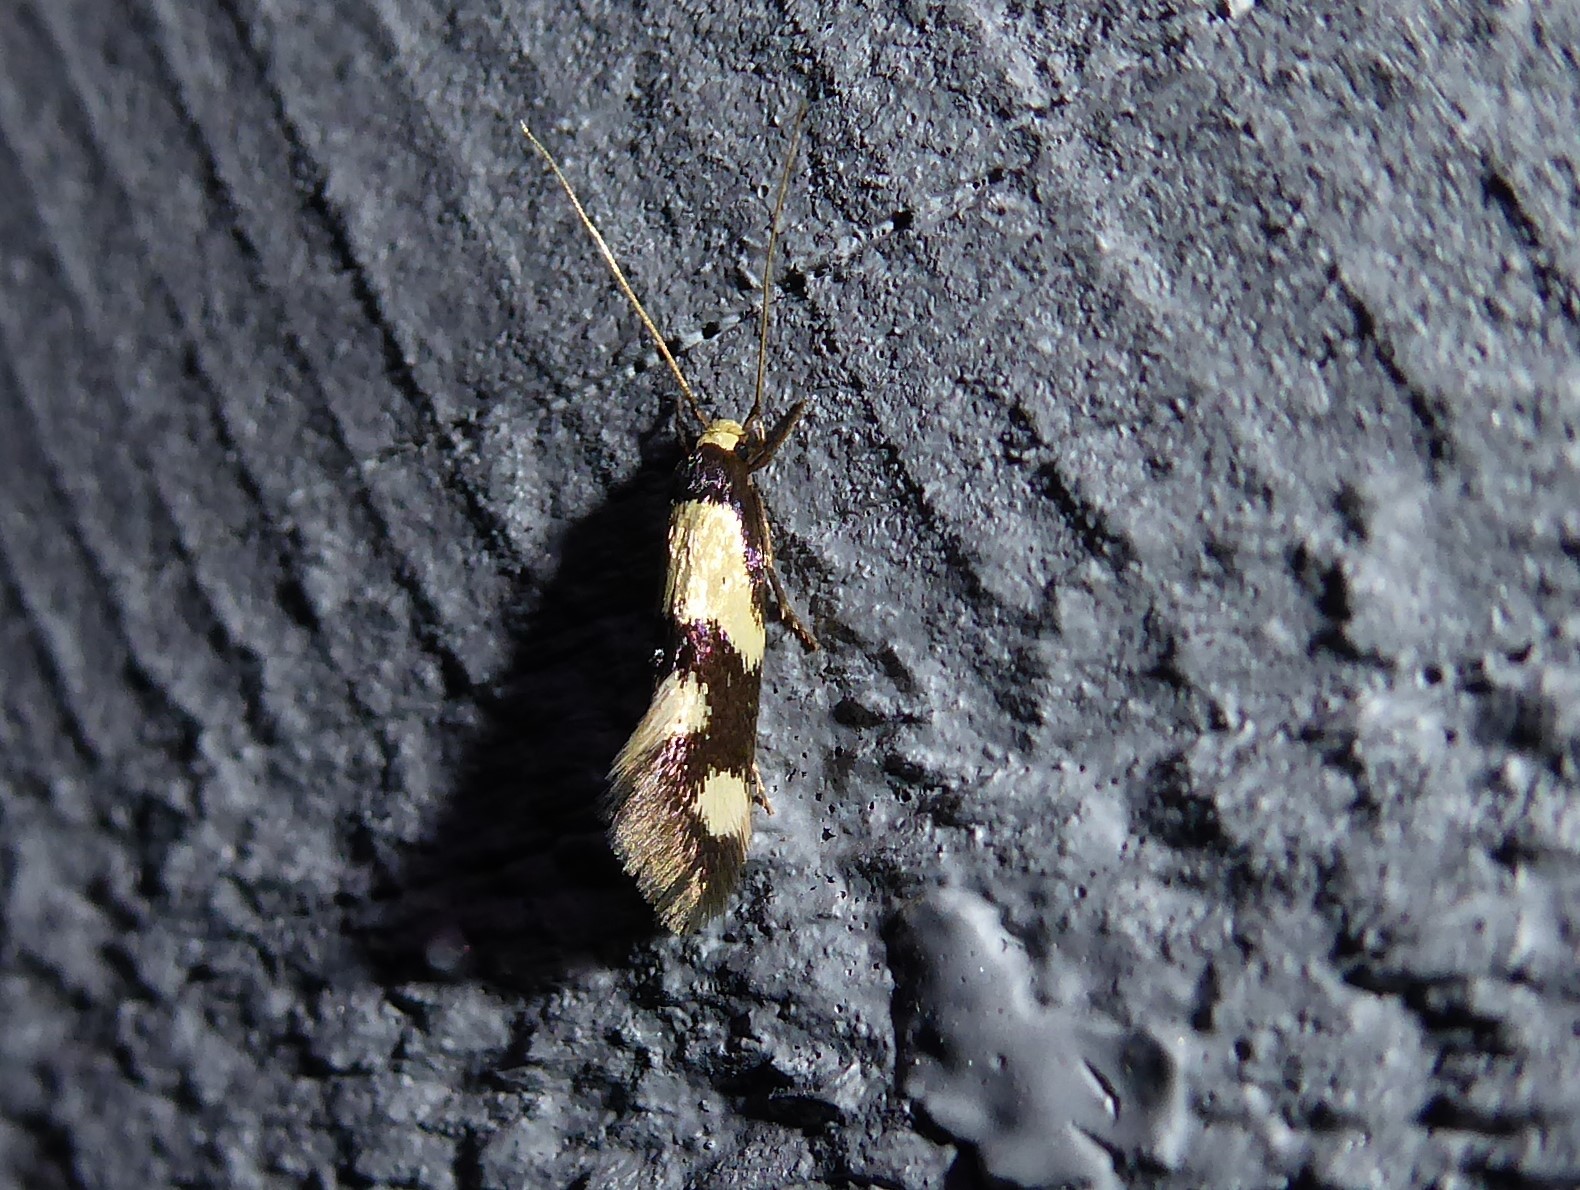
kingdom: Animalia
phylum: Arthropoda
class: Insecta
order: Lepidoptera
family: Tineidae
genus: Opogona
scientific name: Opogona comptella
